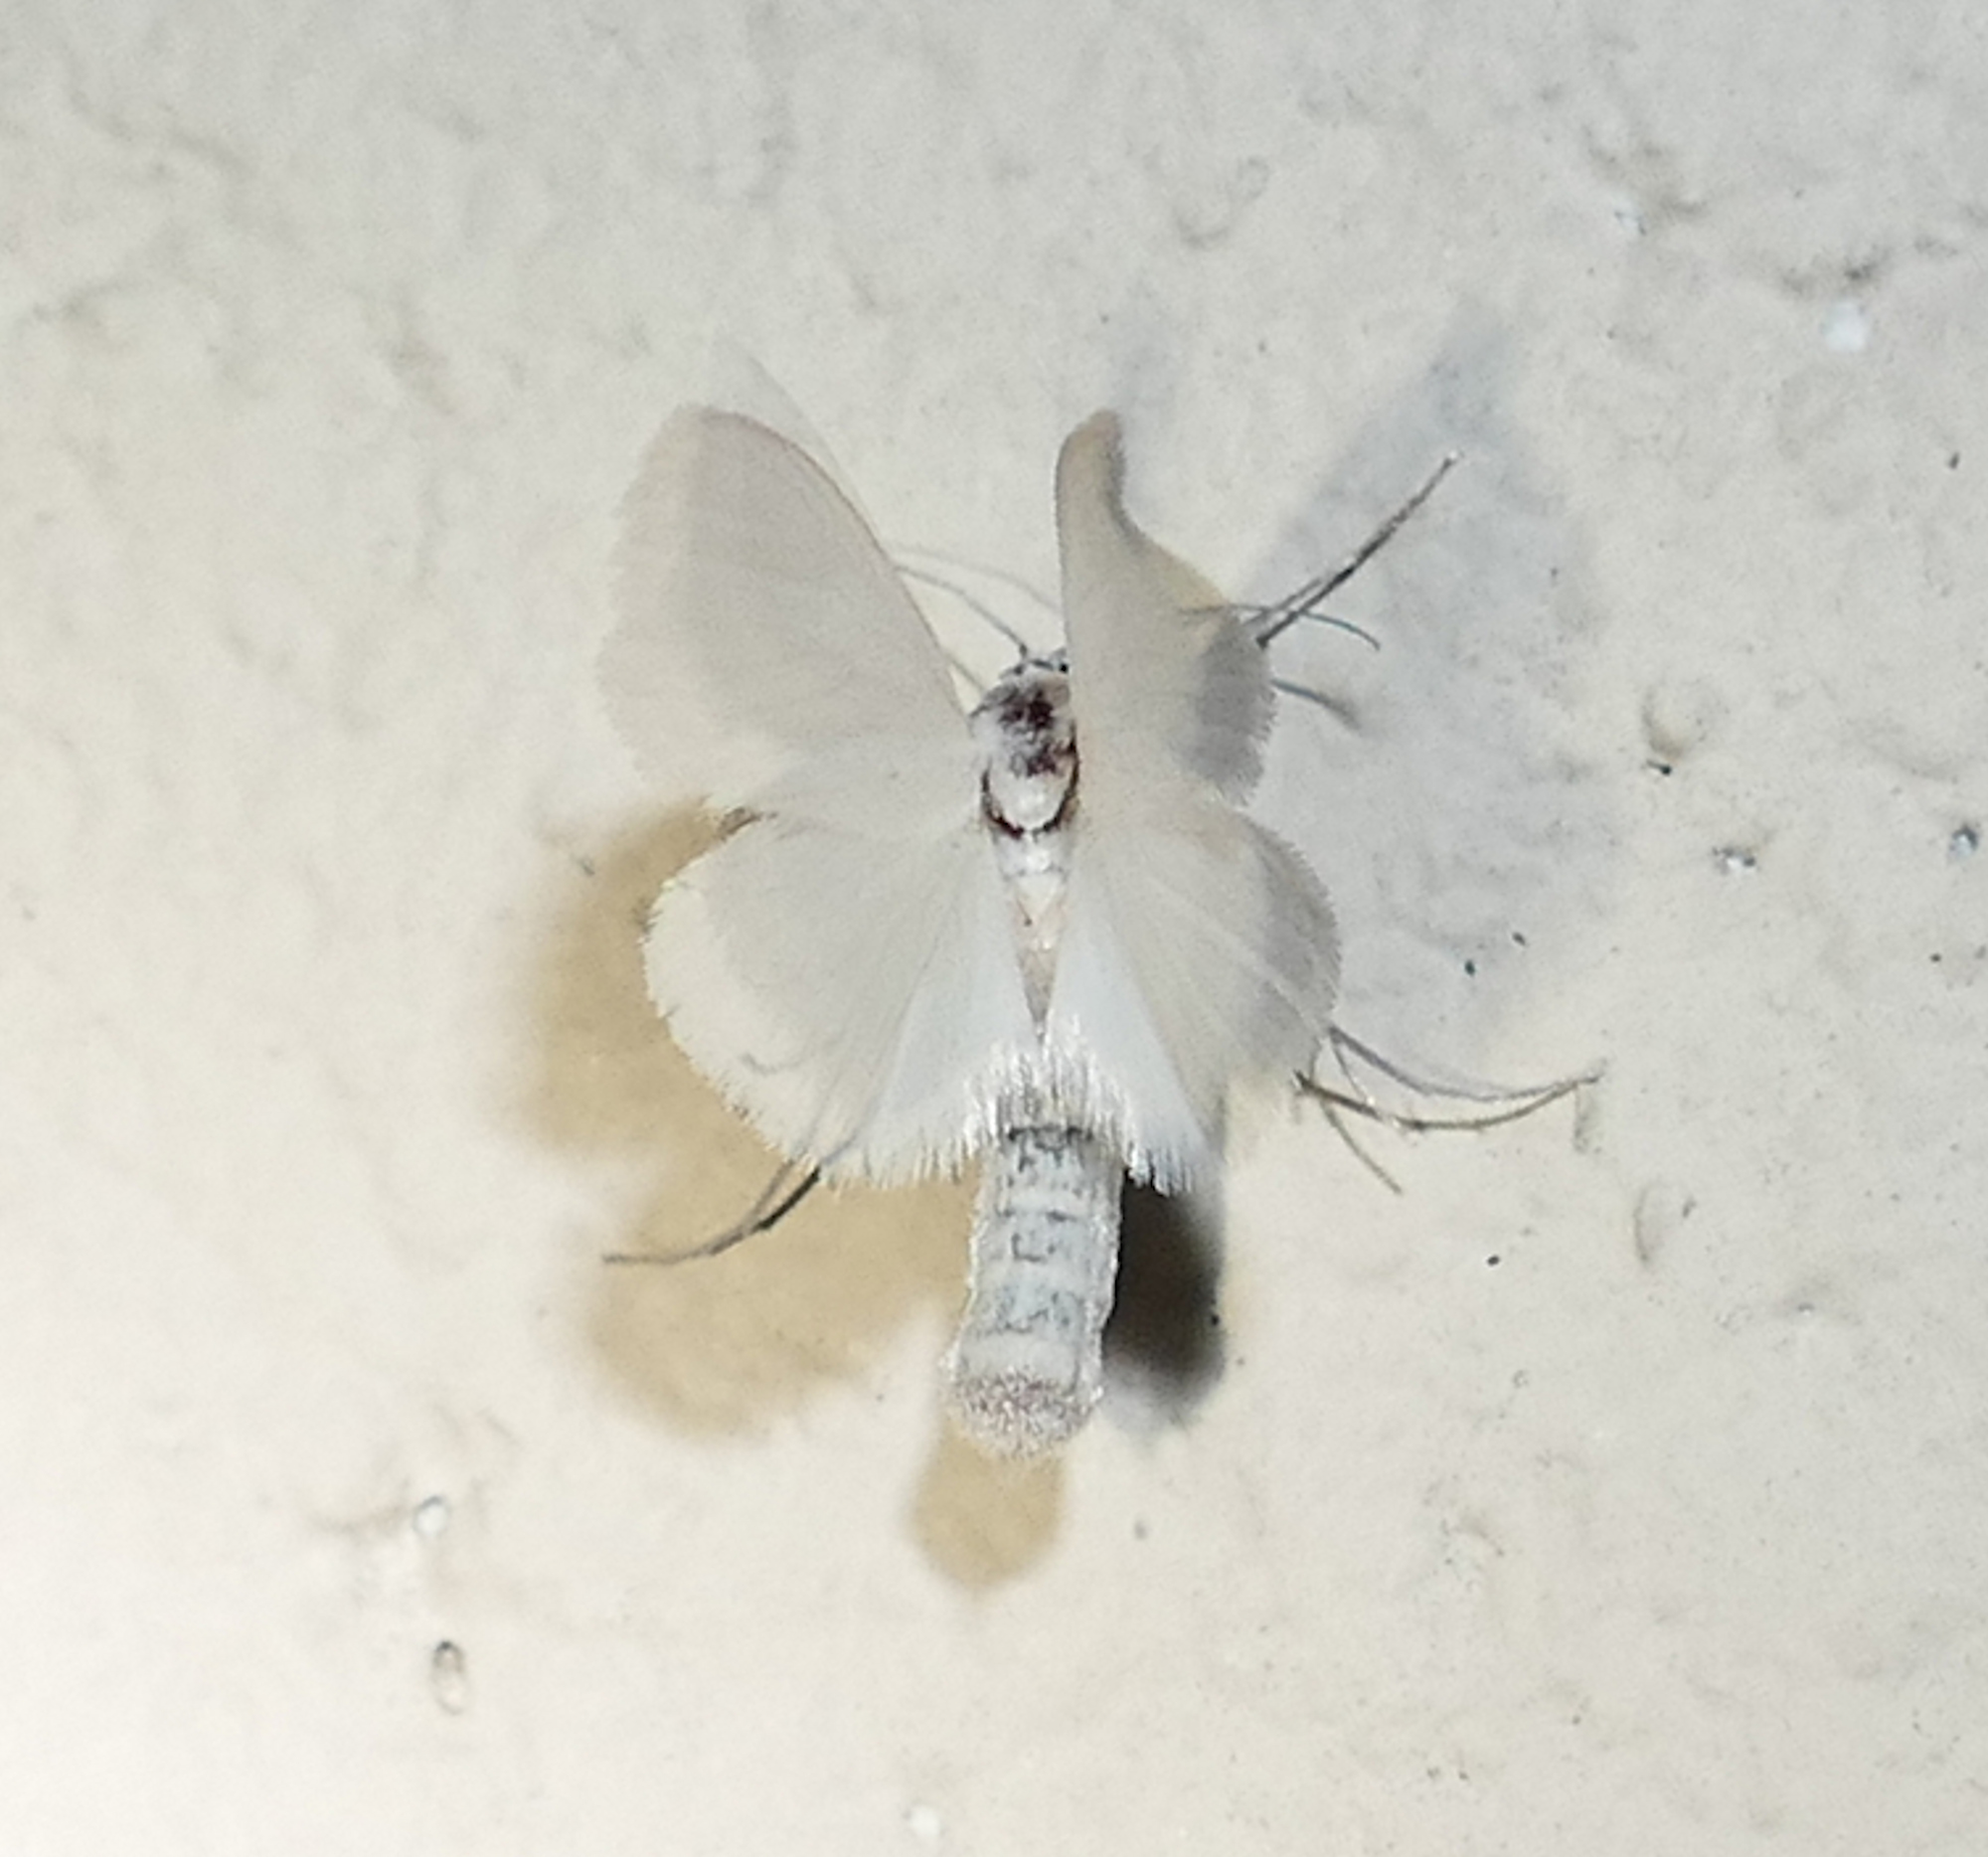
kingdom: Animalia
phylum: Arthropoda
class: Insecta
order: Lepidoptera
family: Crambidae
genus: Rupela
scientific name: Rupela tinctella
